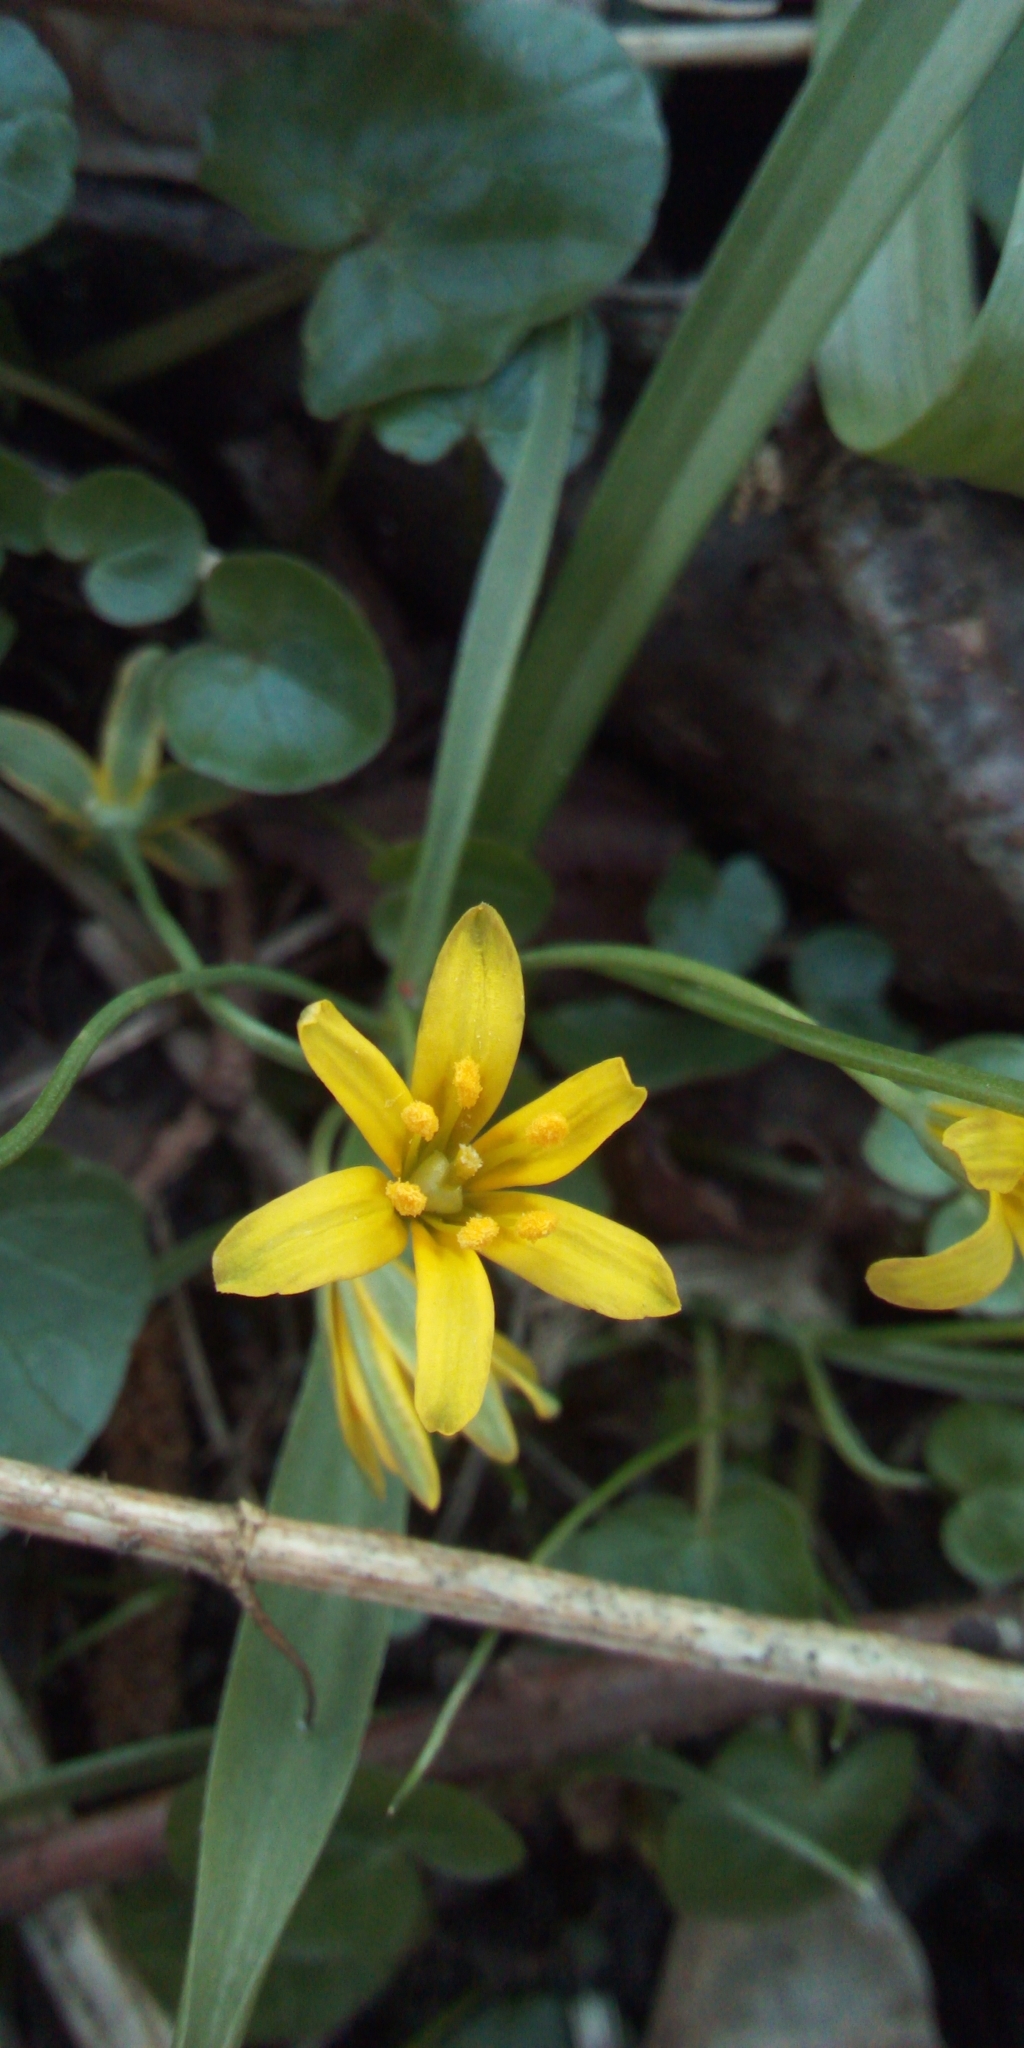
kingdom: Plantae
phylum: Tracheophyta
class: Liliopsida
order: Liliales
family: Liliaceae
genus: Gagea
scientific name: Gagea lutea
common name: Yellow star-of-bethlehem
